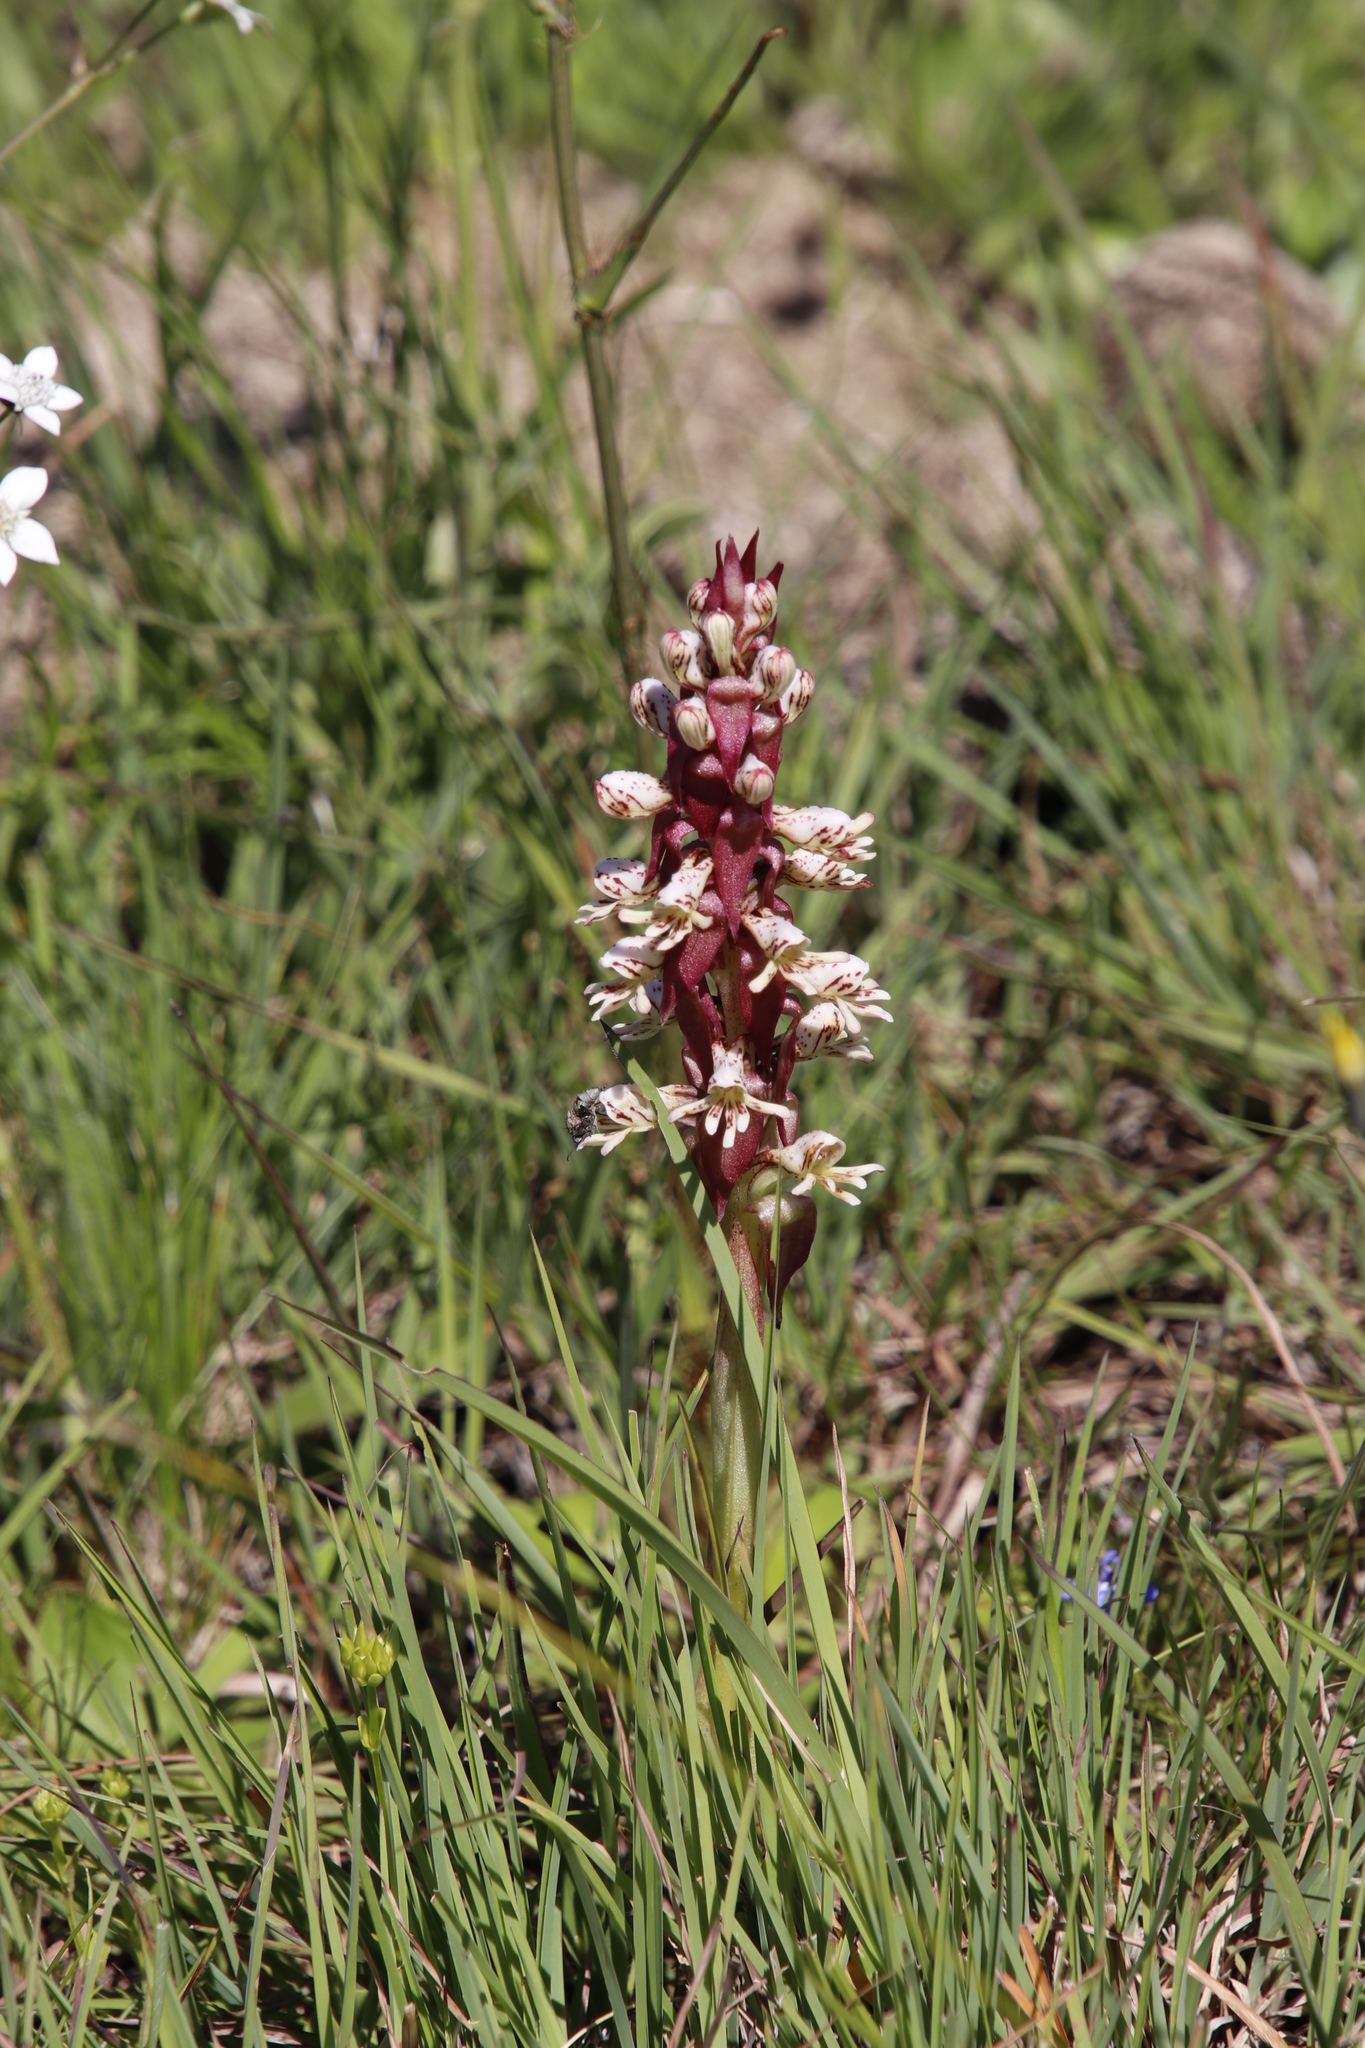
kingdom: Plantae
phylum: Tracheophyta
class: Liliopsida
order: Asparagales
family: Orchidaceae
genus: Satyrium
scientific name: Satyrium sphaerocarpum
